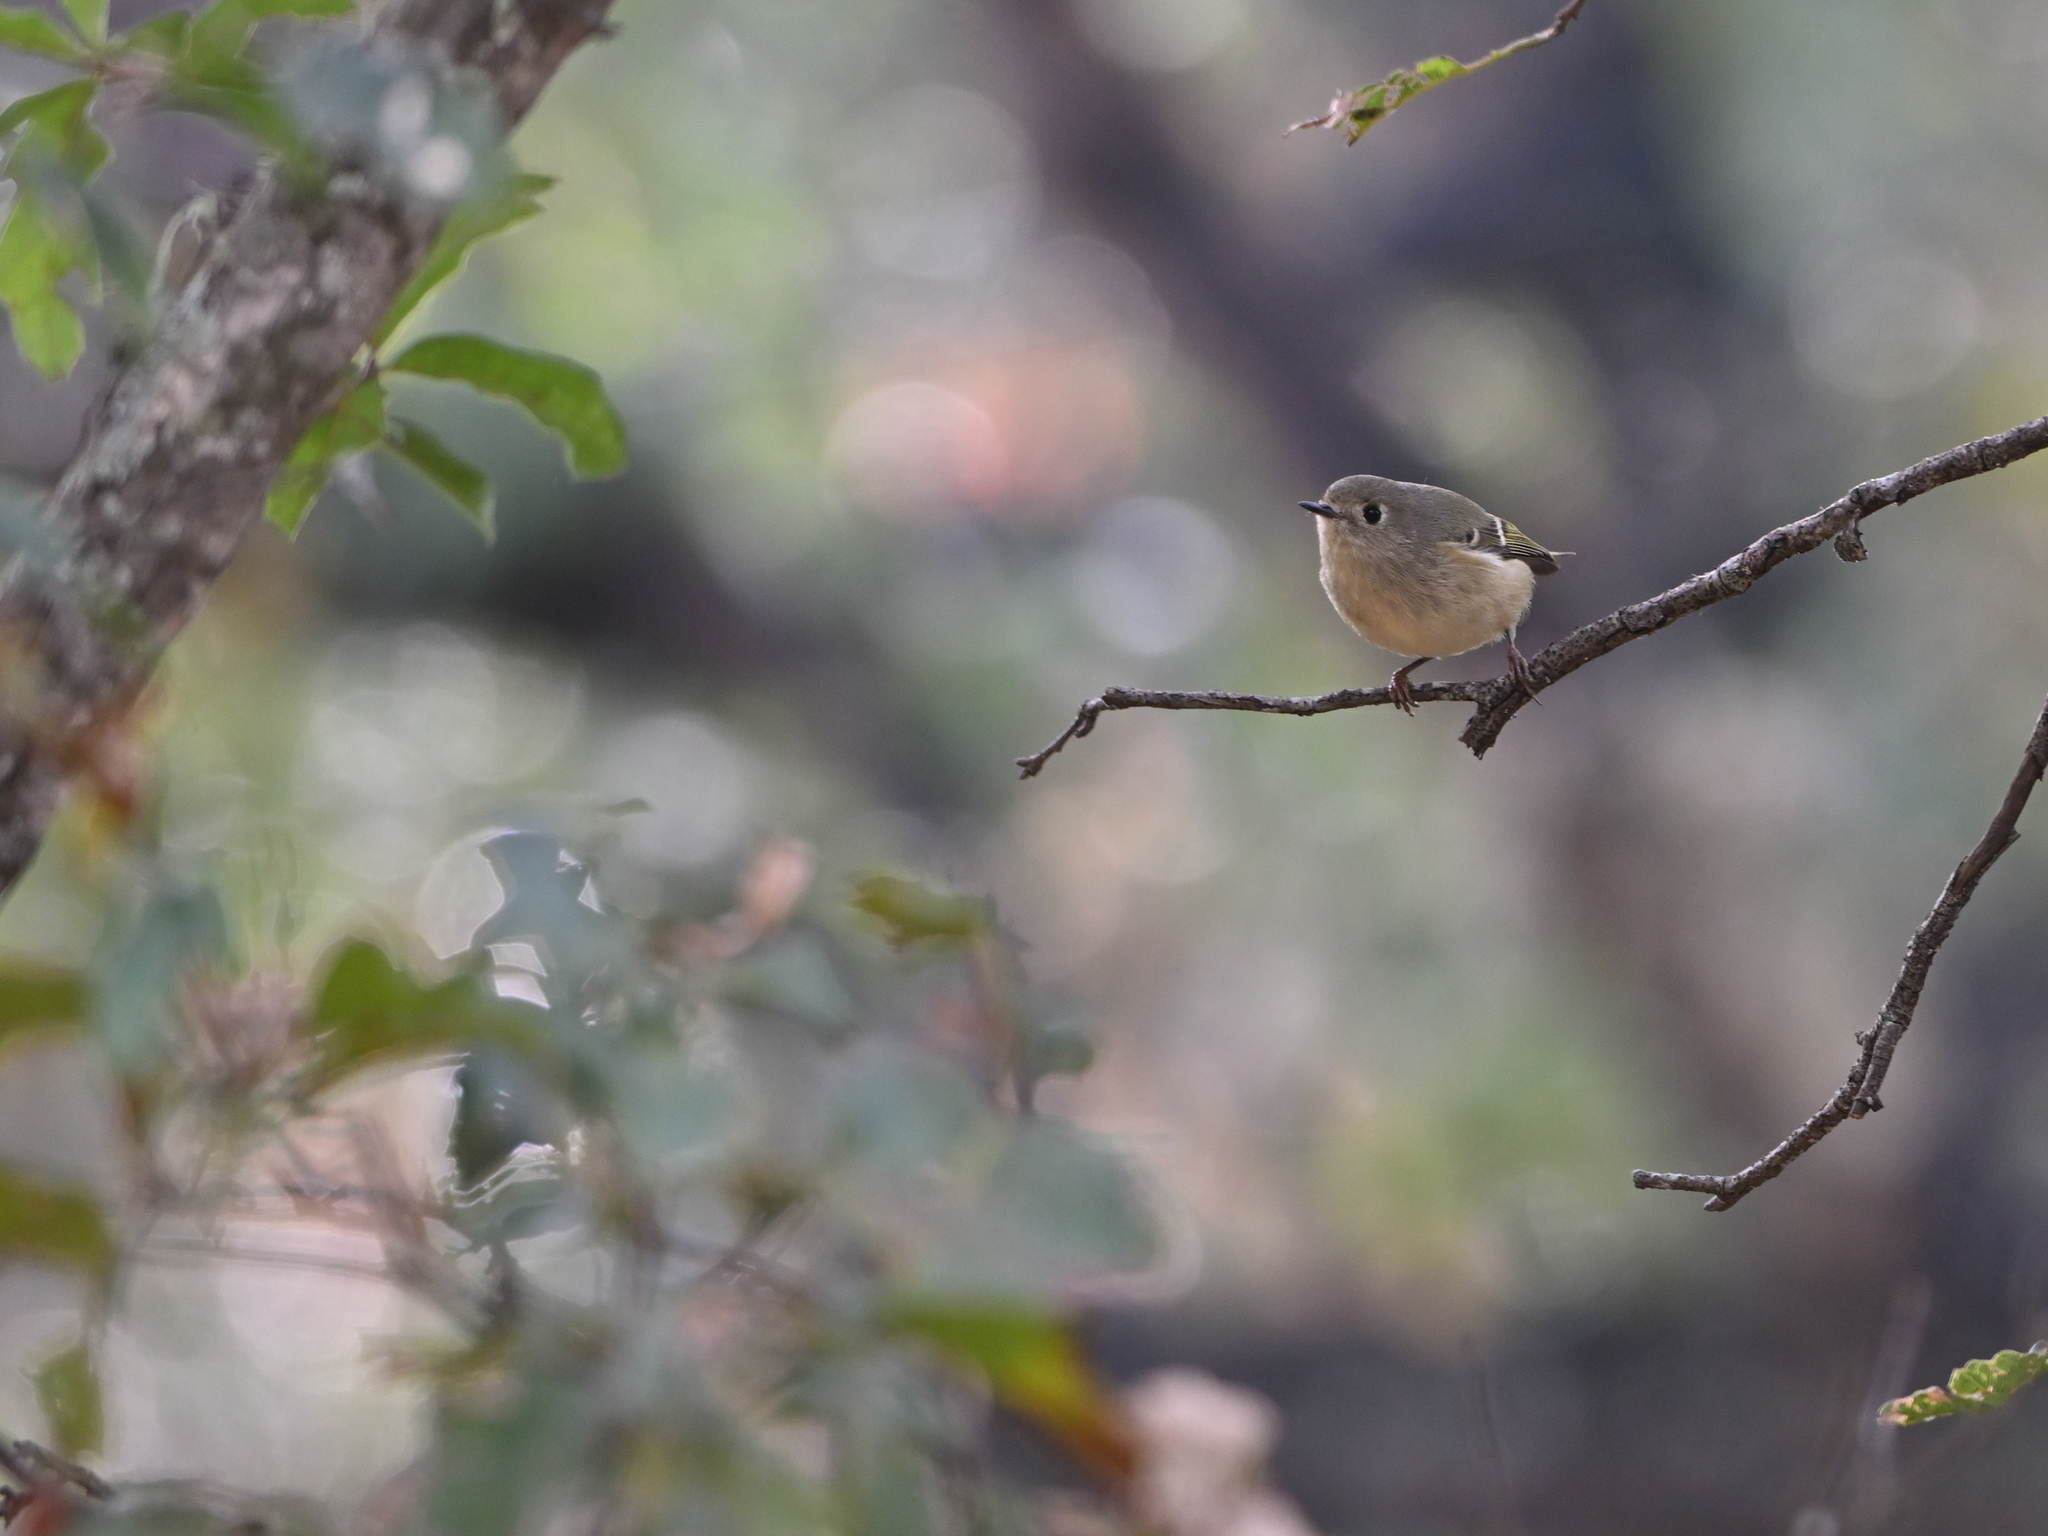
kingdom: Animalia
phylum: Chordata
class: Aves
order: Passeriformes
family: Regulidae
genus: Regulus
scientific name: Regulus calendula
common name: Ruby-crowned kinglet
